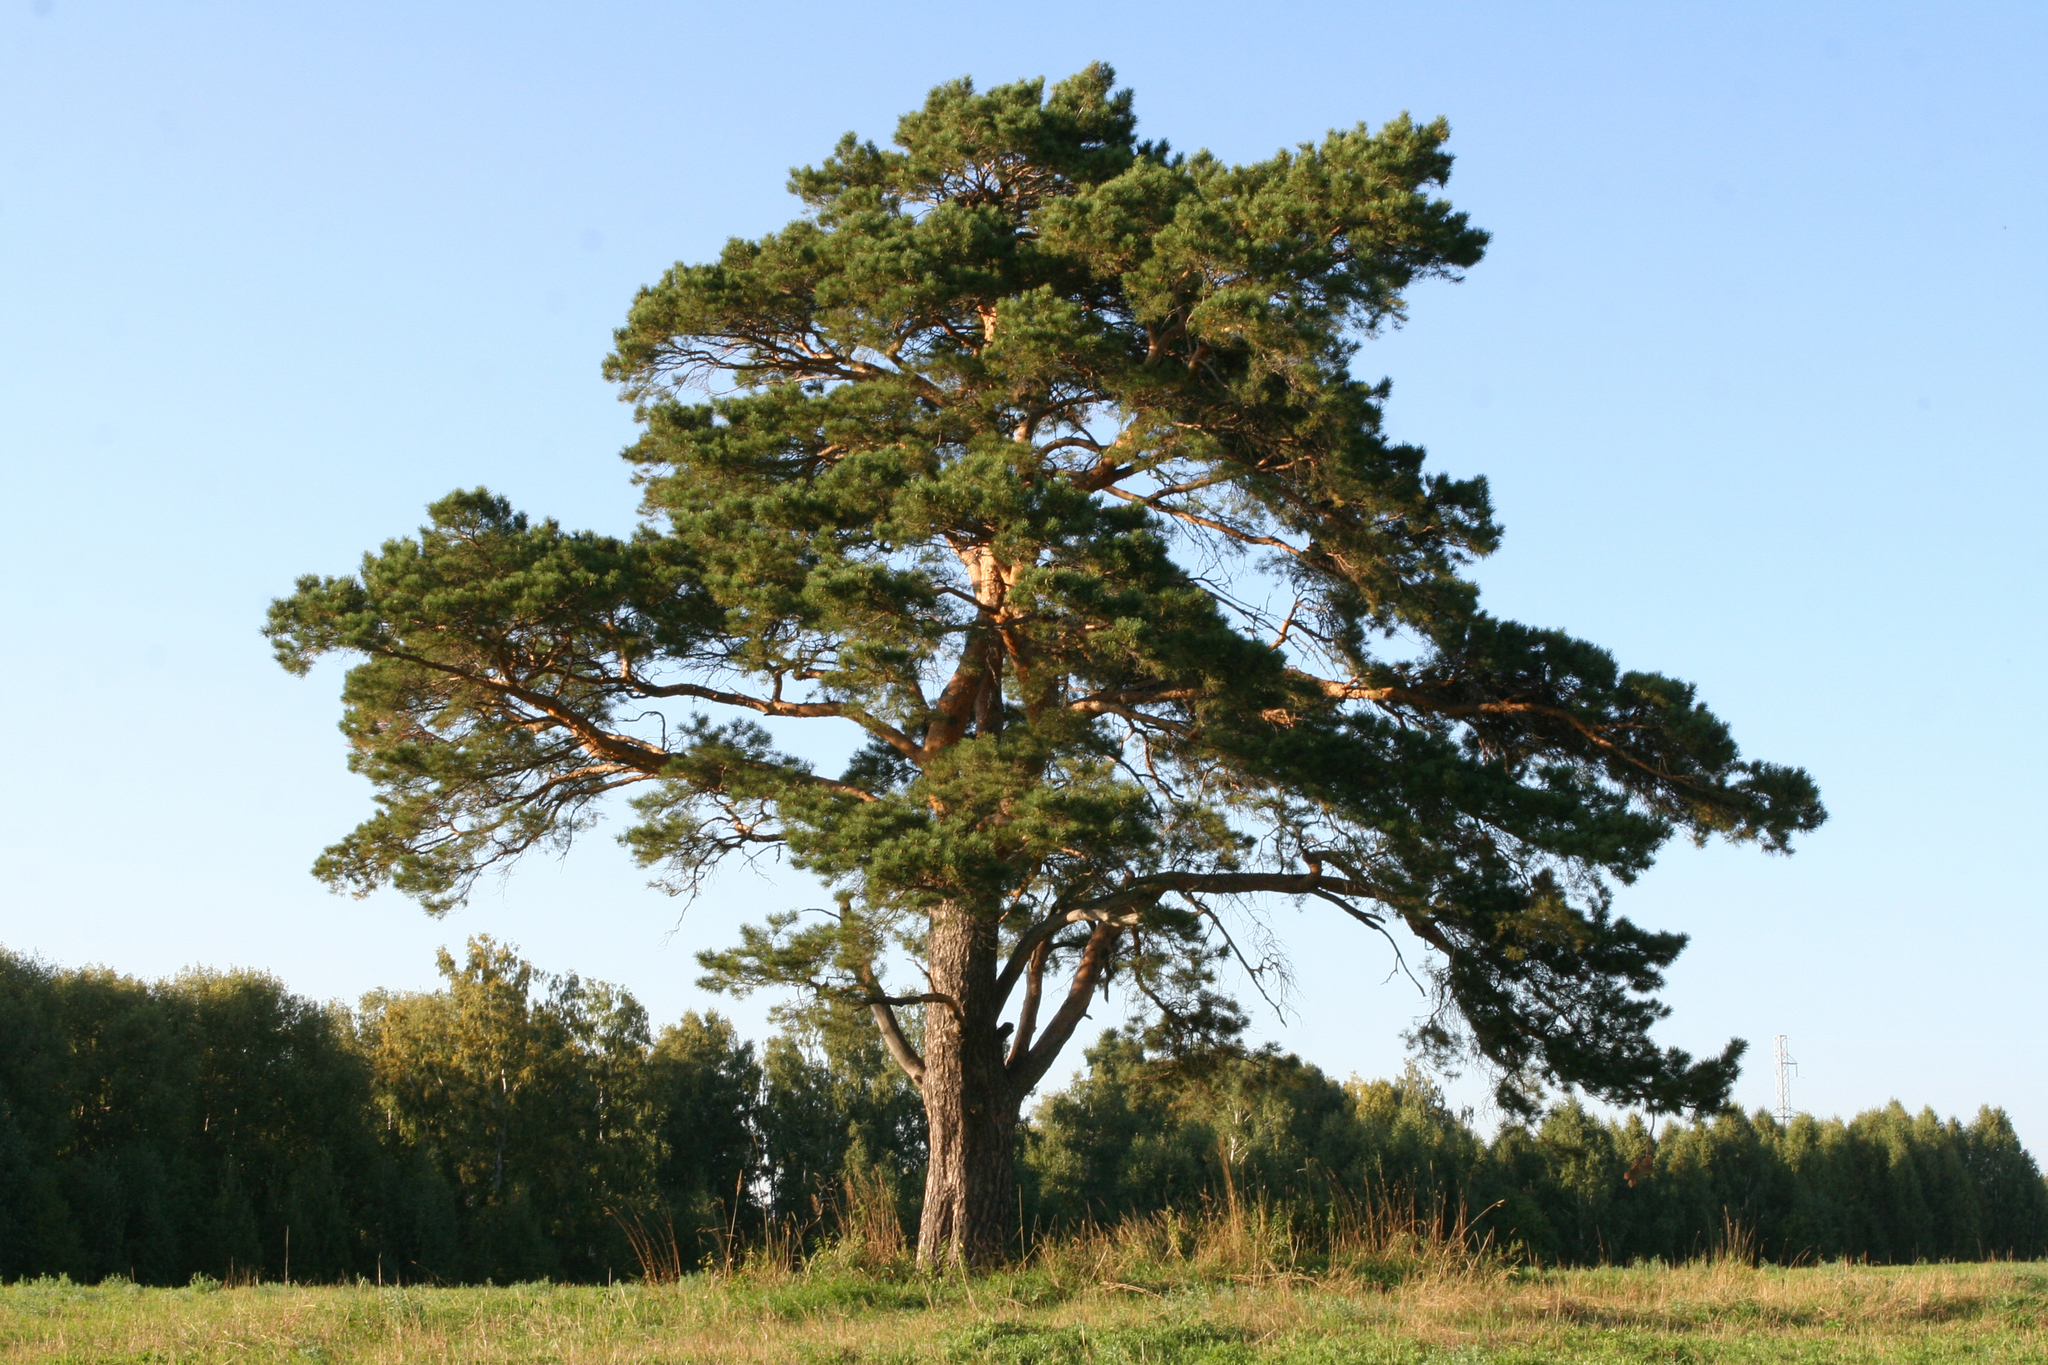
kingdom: Plantae
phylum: Tracheophyta
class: Pinopsida
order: Pinales
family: Pinaceae
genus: Pinus
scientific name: Pinus sylvestris
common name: Scots pine
